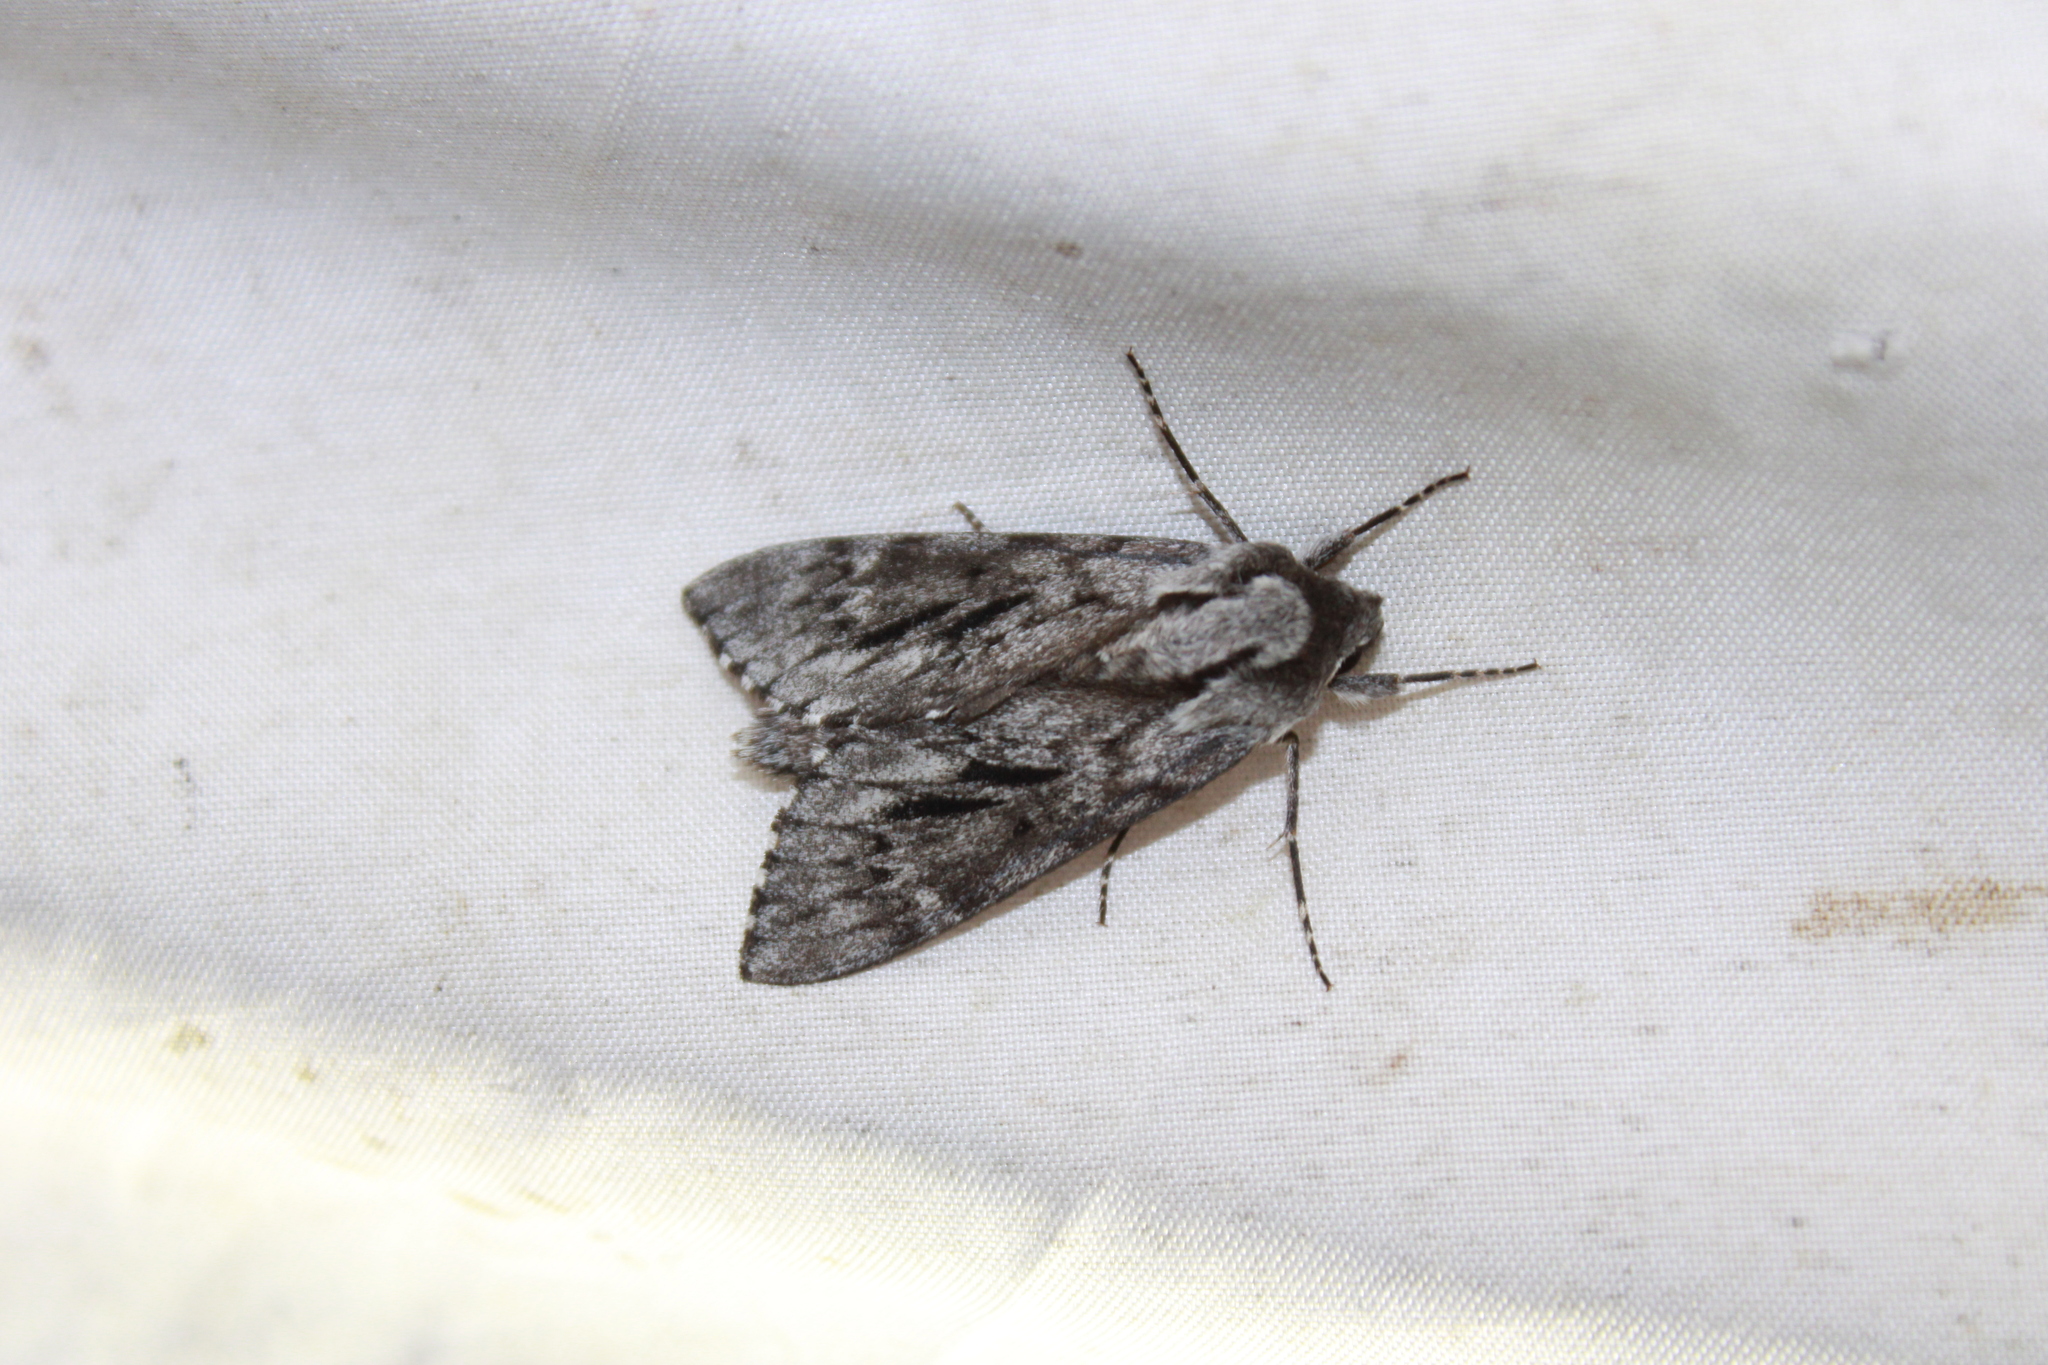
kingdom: Animalia
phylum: Arthropoda
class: Insecta
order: Lepidoptera
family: Sphingidae
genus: Lapara
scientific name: Lapara bombycoides
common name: Northern pine sphinx
